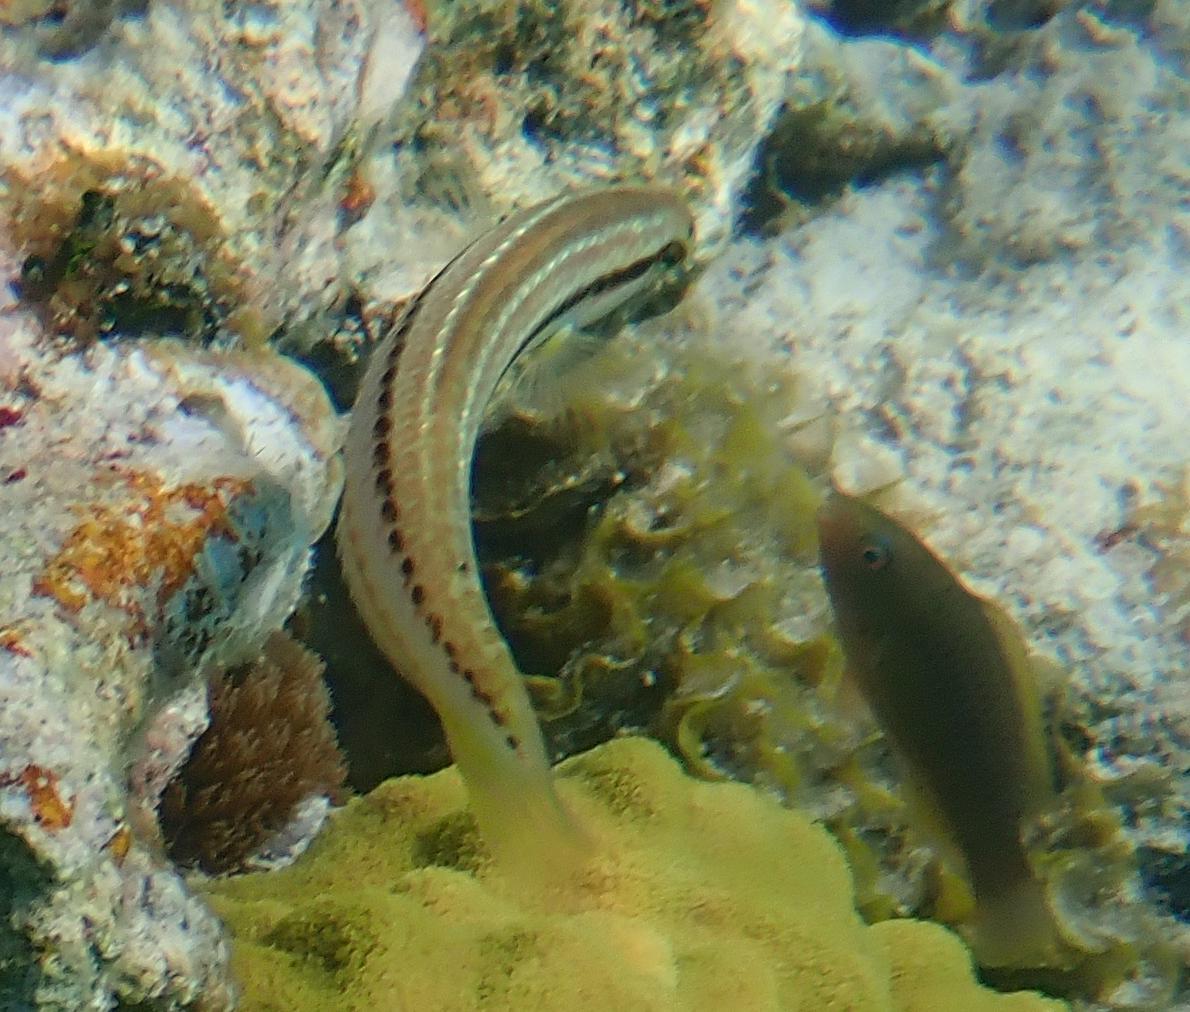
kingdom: Animalia
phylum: Chordata
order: Perciformes
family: Labridae
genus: Halichoeres
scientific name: Halichoeres bivittatus
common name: Slippery dick
